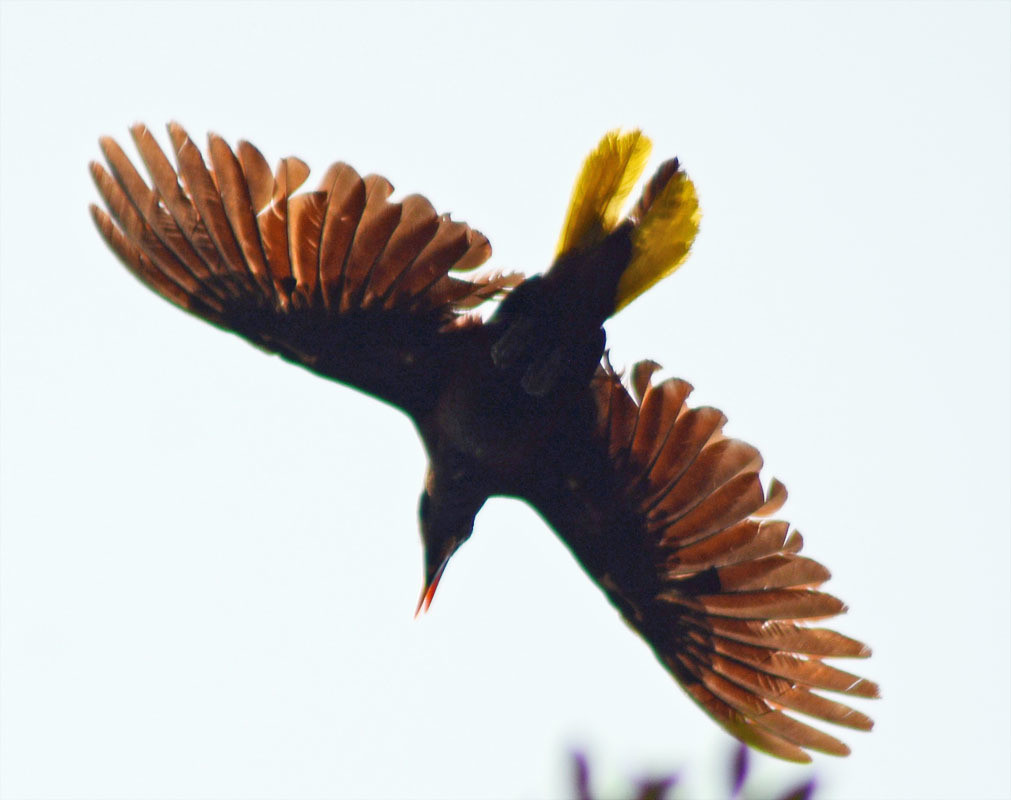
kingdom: Animalia
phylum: Chordata
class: Aves
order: Passeriformes
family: Icteridae
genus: Psarocolius
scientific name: Psarocolius montezuma
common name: Montezuma oropendola
